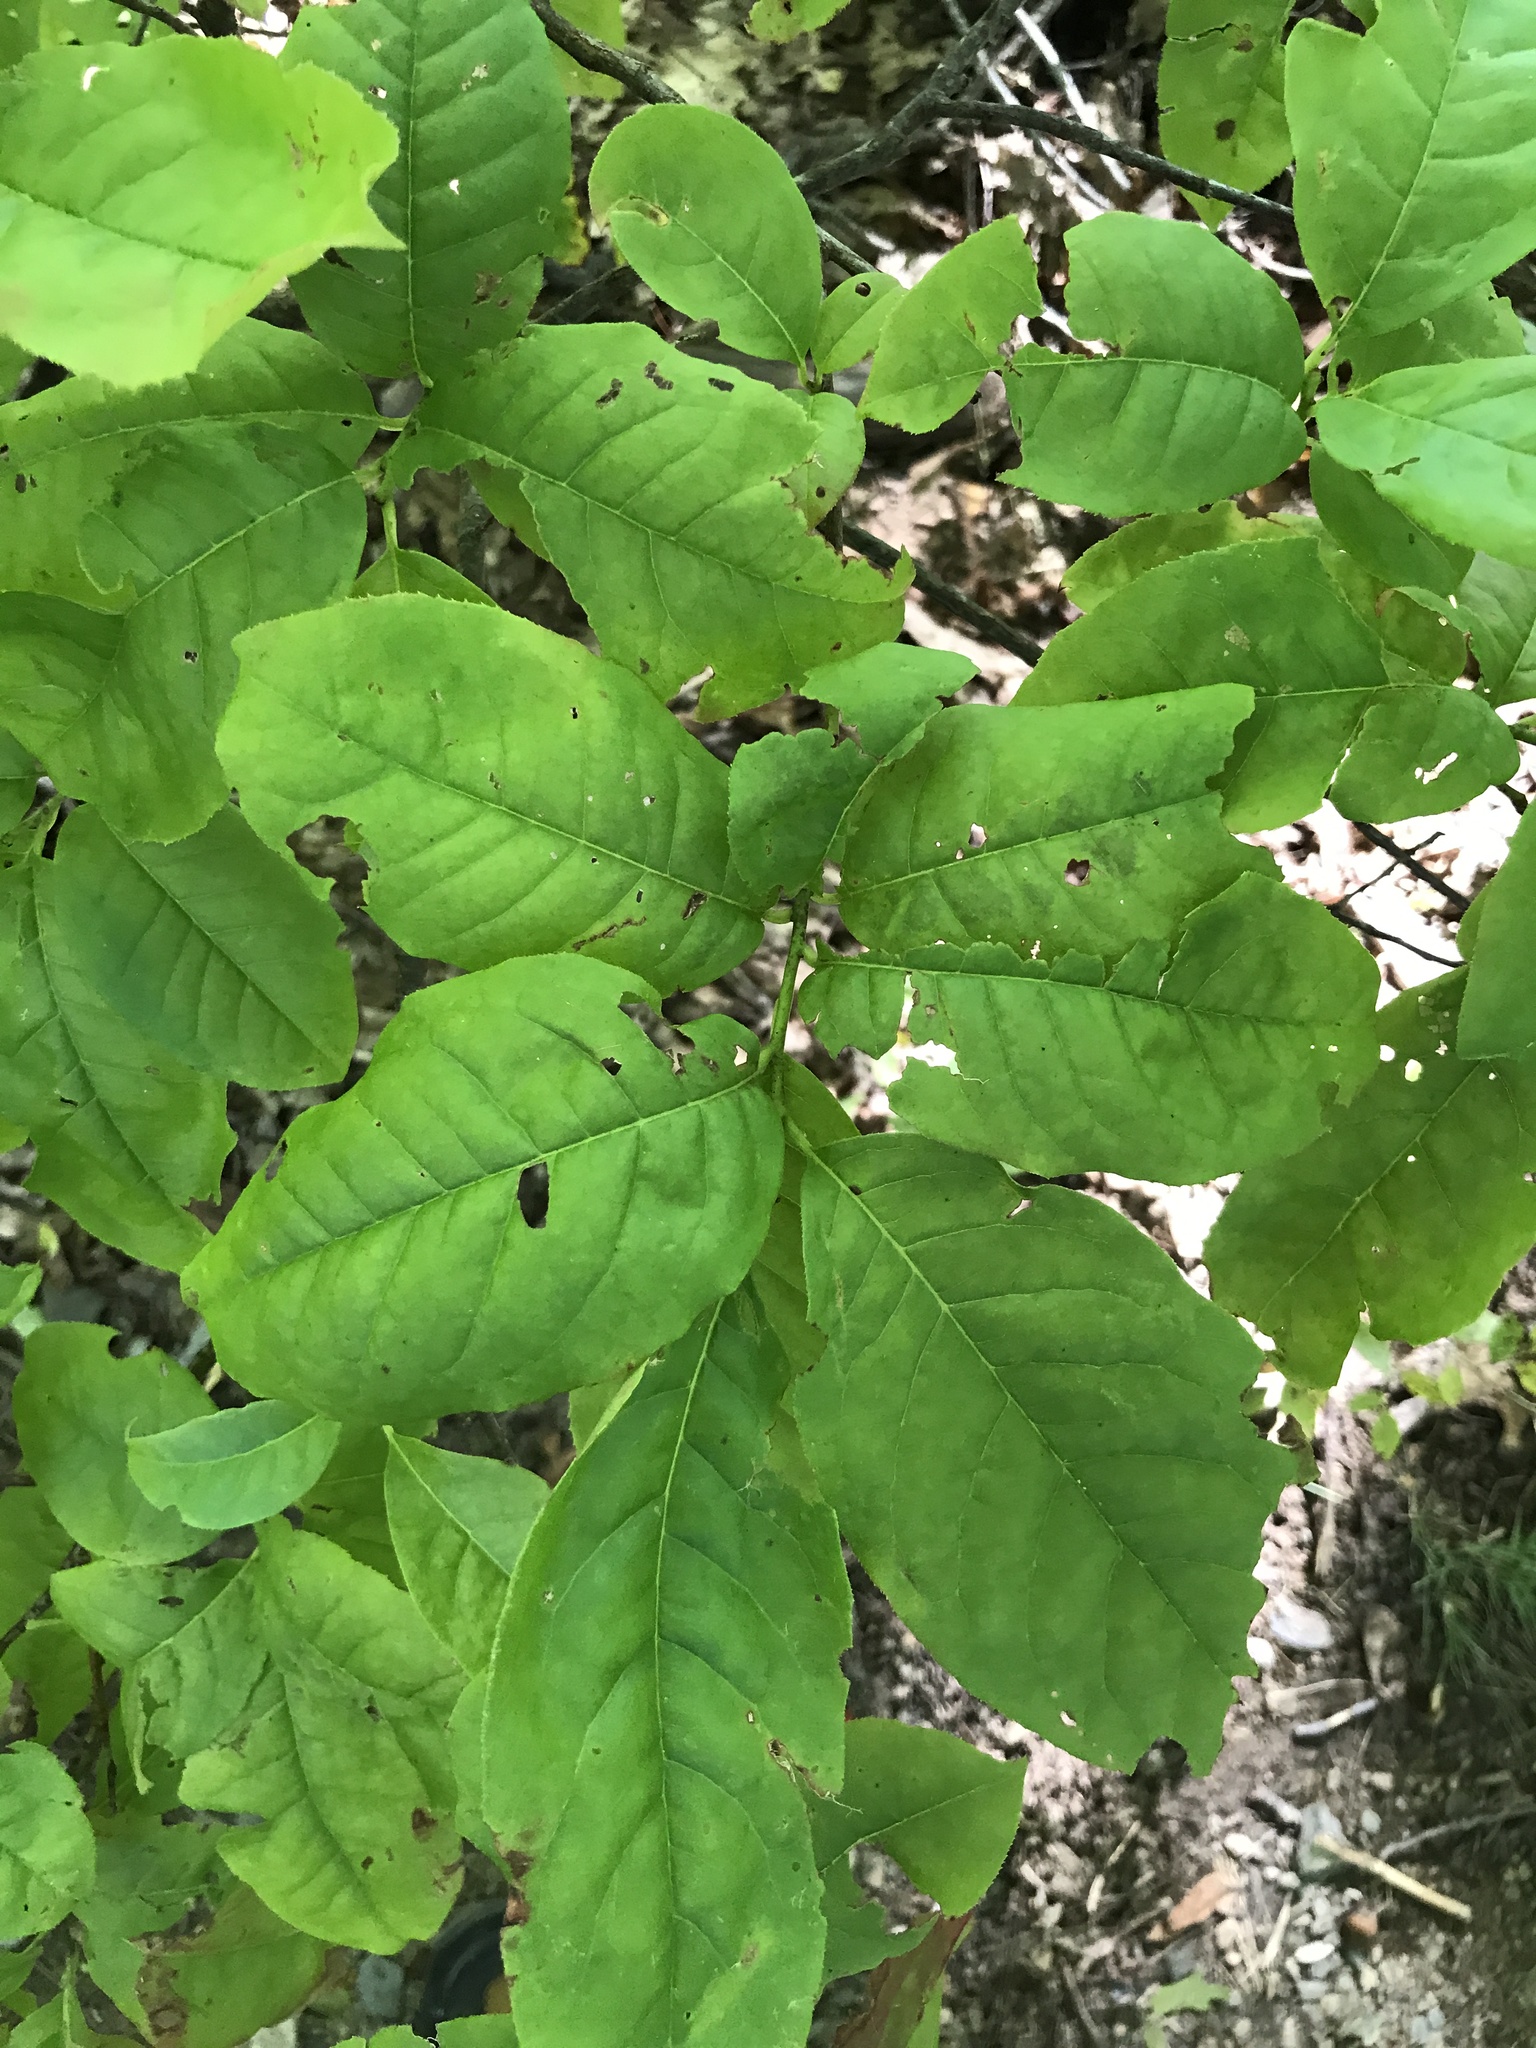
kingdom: Plantae
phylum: Tracheophyta
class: Magnoliopsida
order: Ericales
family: Ericaceae
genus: Oxydendrum
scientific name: Oxydendrum arboreum
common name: Sourwood
